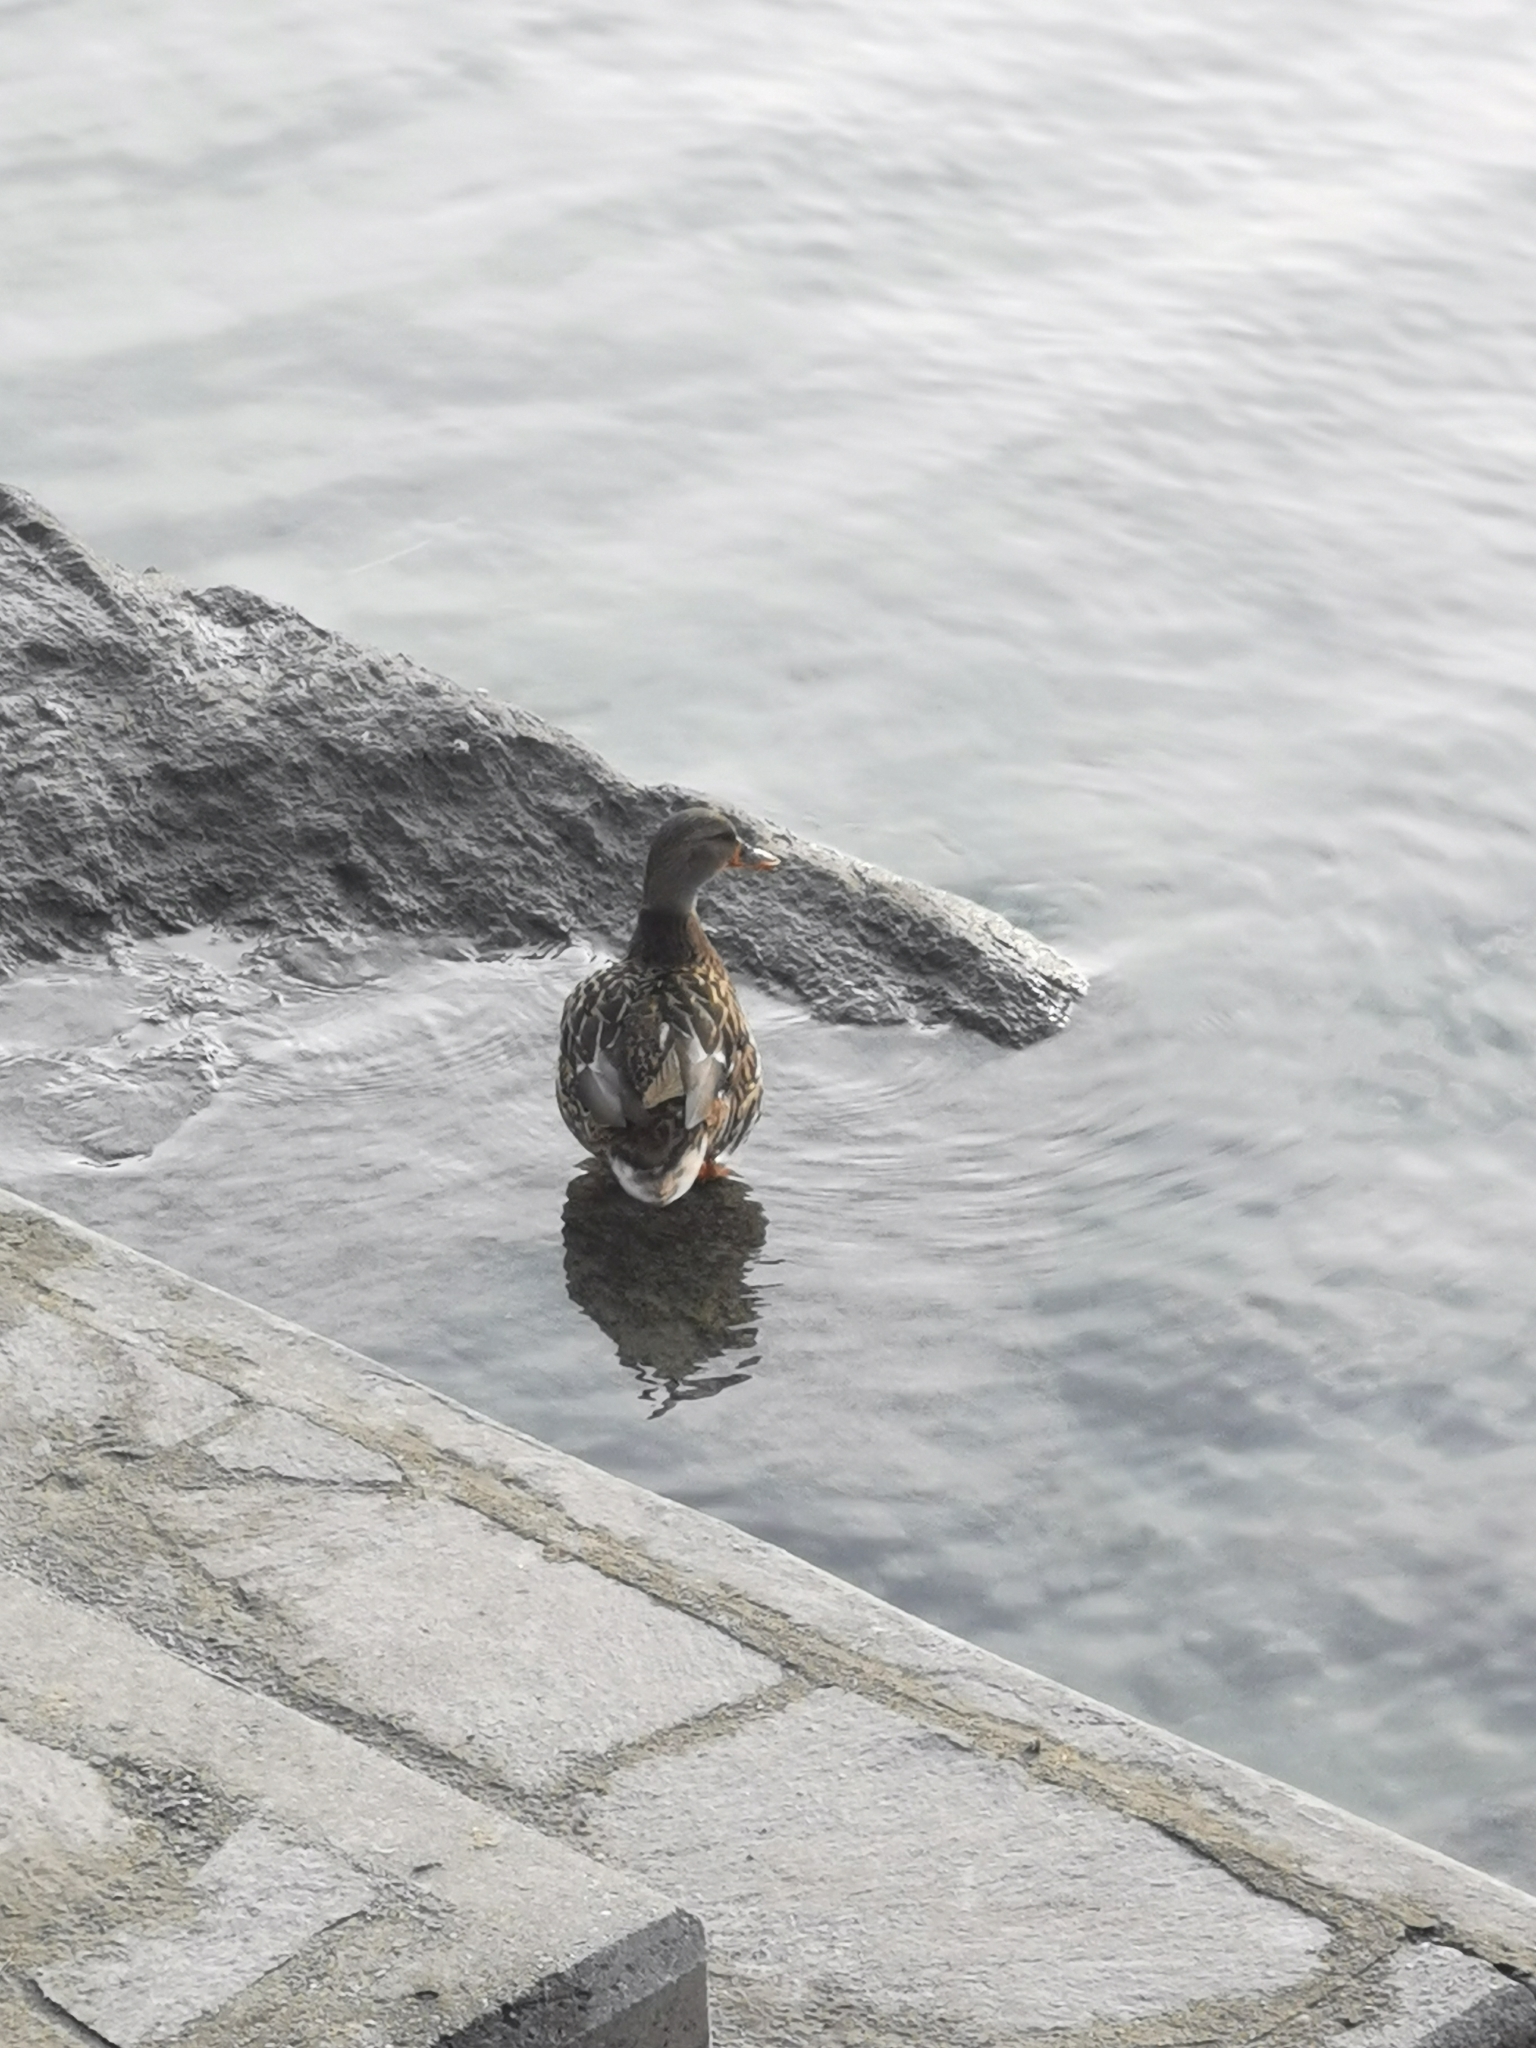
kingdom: Animalia
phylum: Chordata
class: Aves
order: Anseriformes
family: Anatidae
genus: Anas
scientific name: Anas platyrhynchos
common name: Mallard
